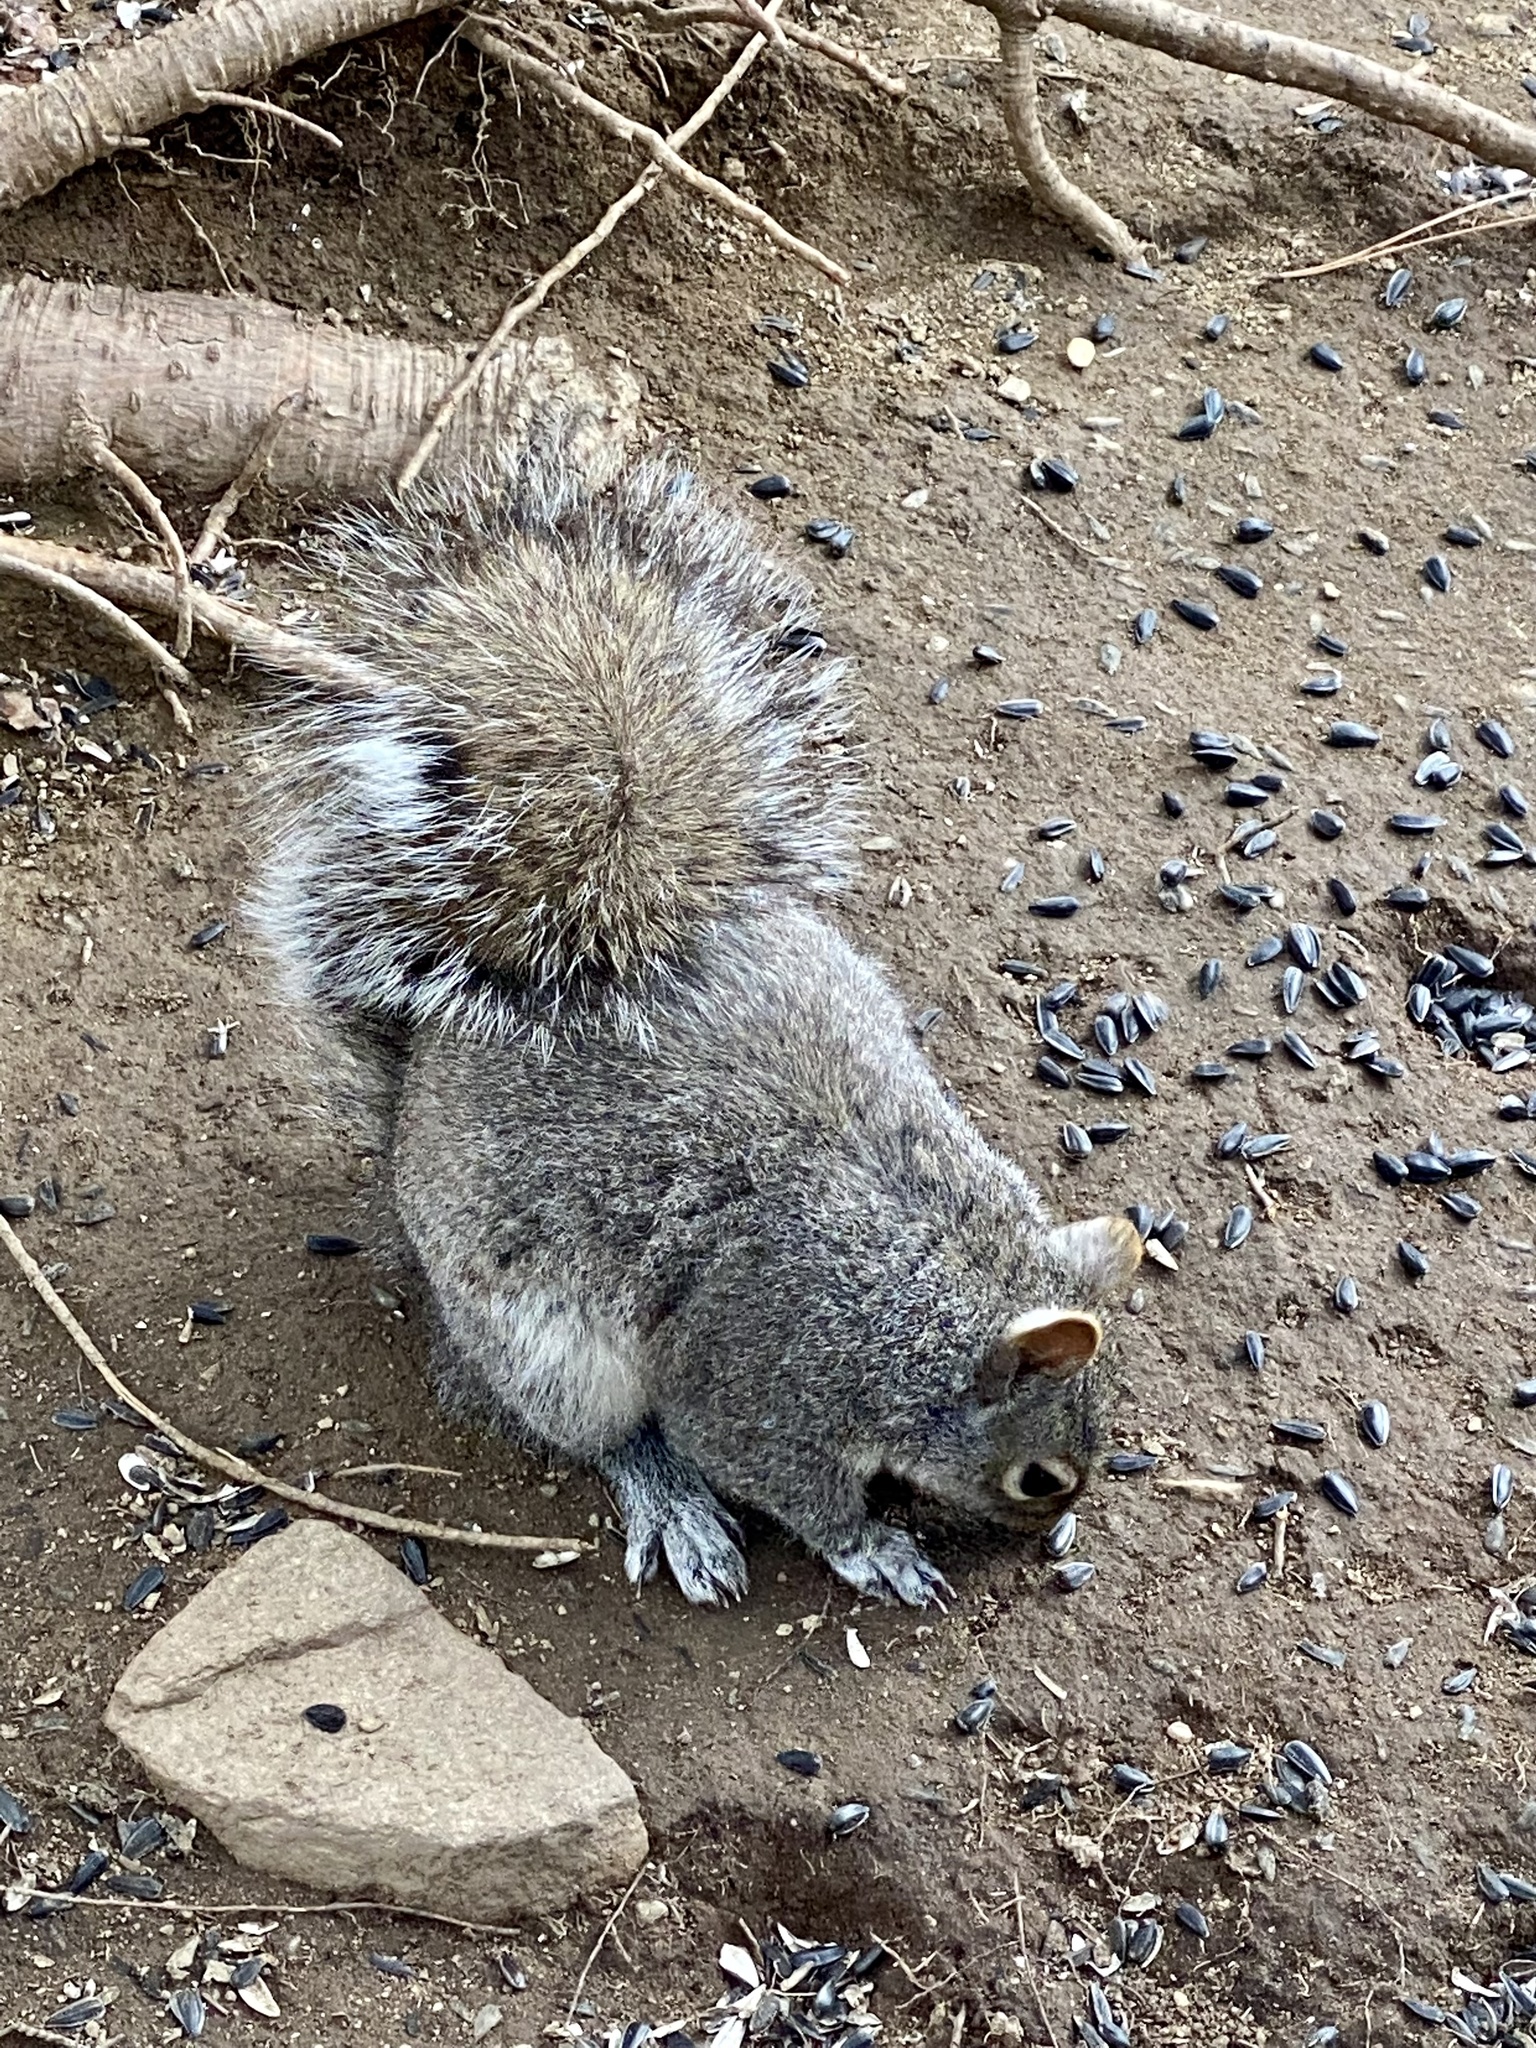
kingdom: Animalia
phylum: Chordata
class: Mammalia
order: Rodentia
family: Sciuridae
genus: Sciurus
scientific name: Sciurus carolinensis
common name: Eastern gray squirrel
